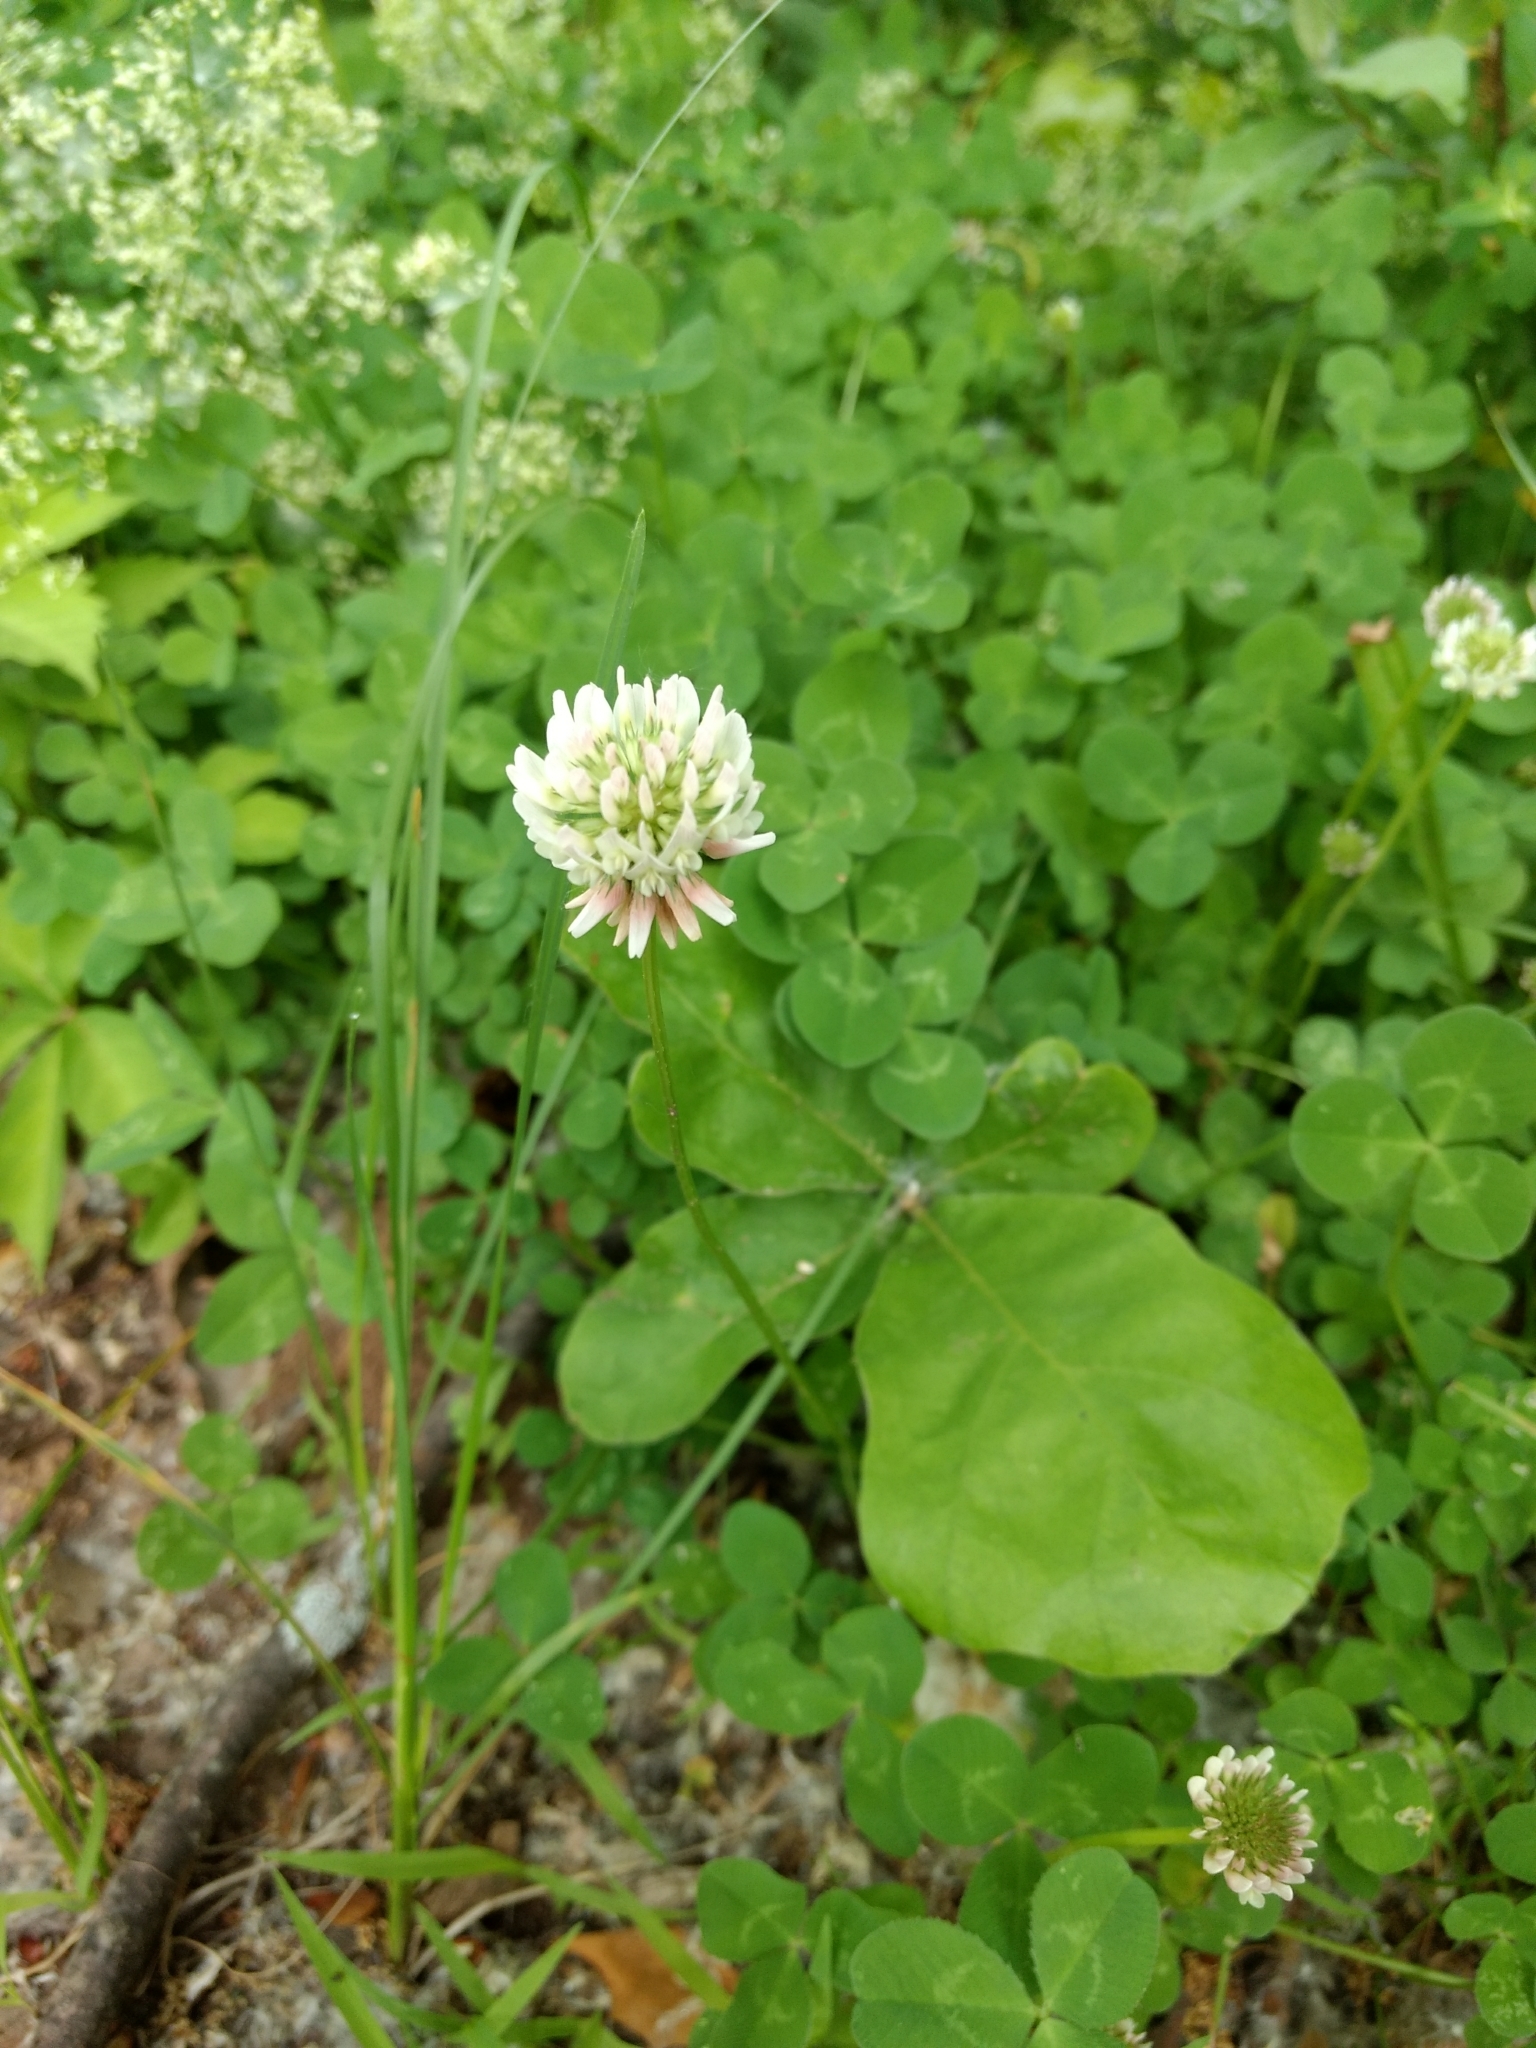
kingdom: Plantae
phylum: Tracheophyta
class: Magnoliopsida
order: Fabales
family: Fabaceae
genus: Trifolium
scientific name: Trifolium repens
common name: White clover
